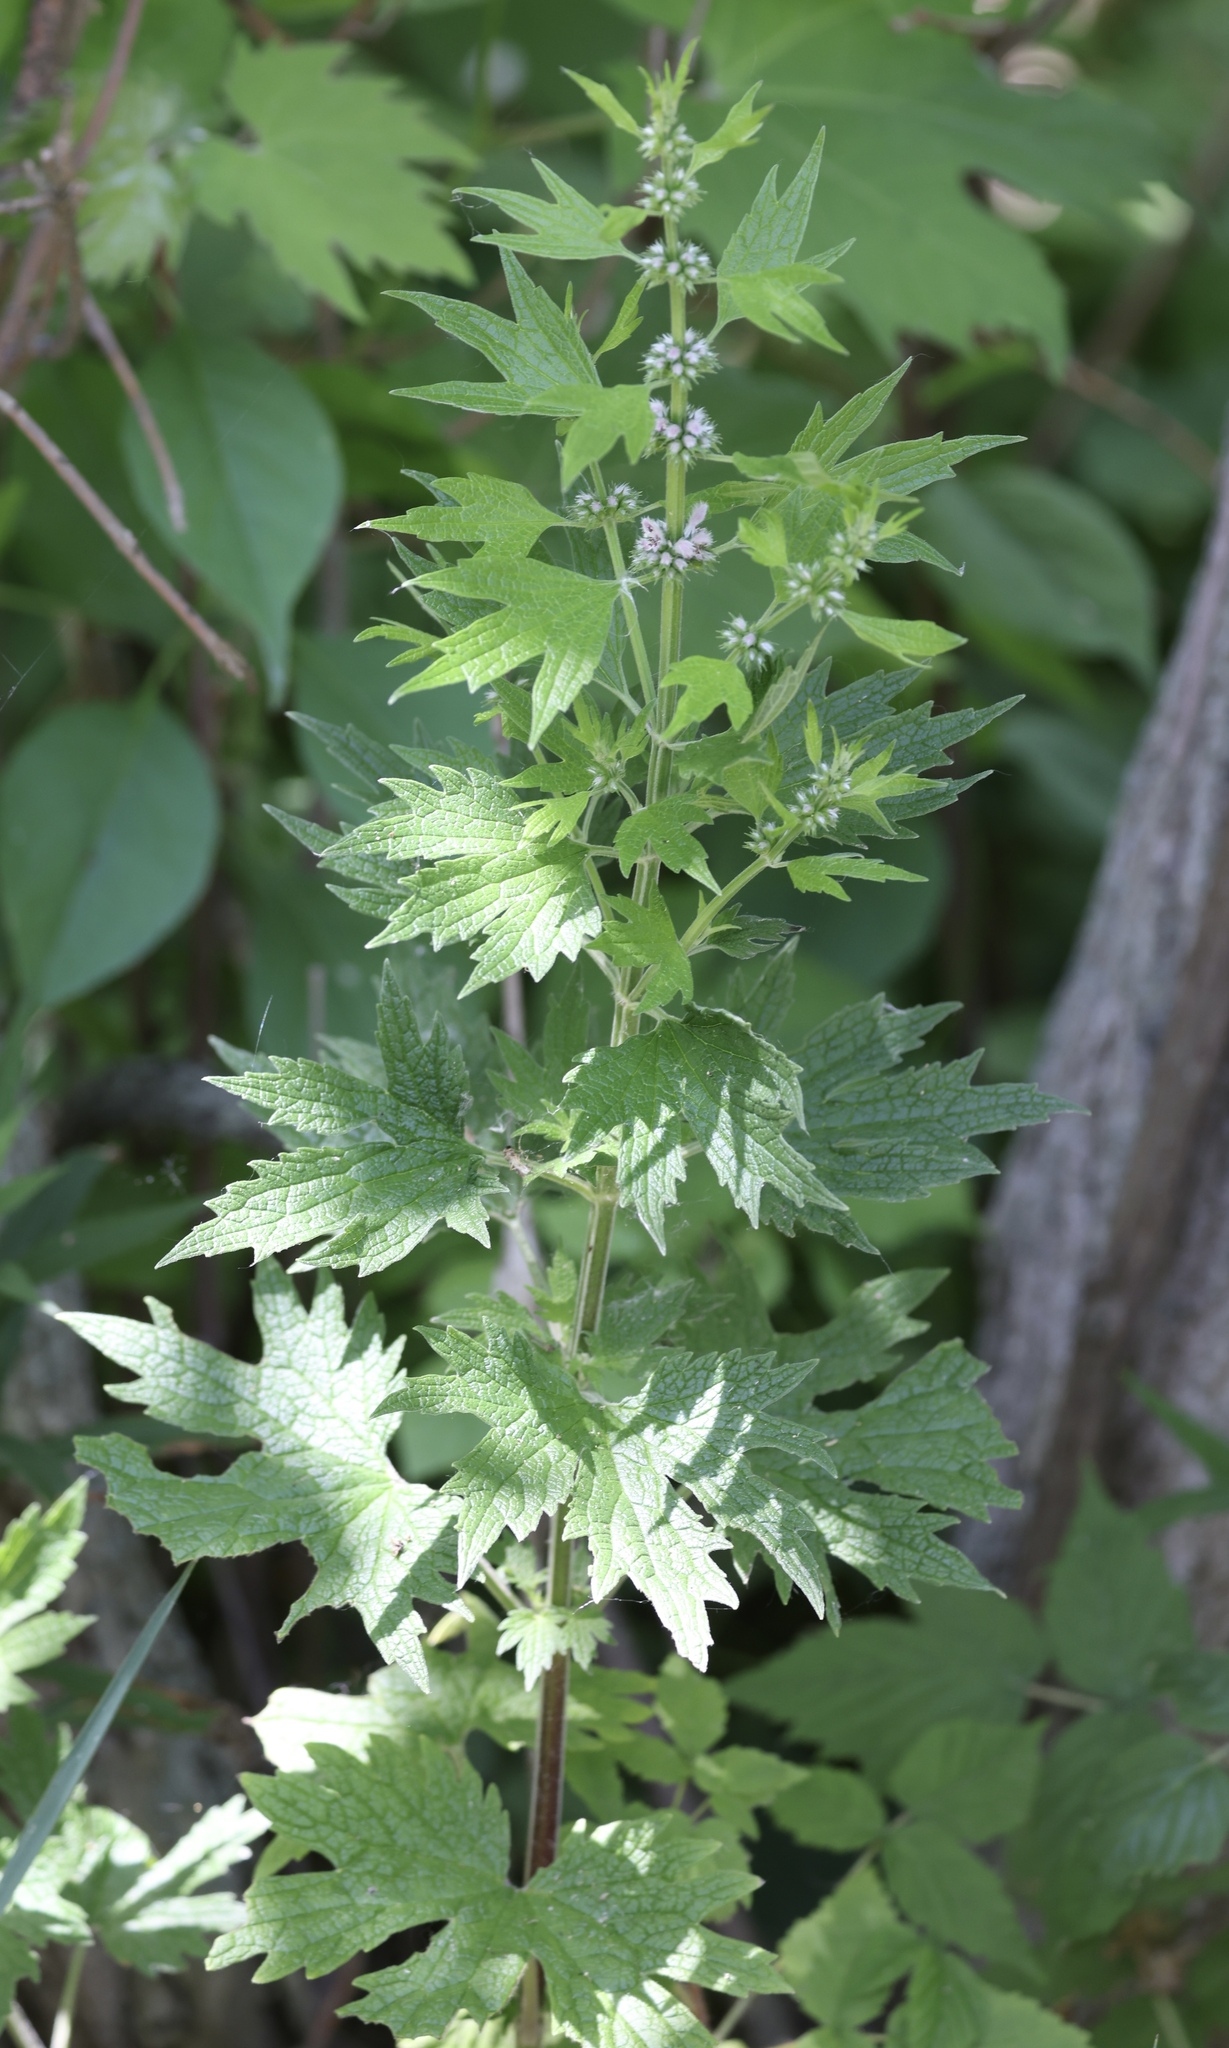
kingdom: Plantae
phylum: Tracheophyta
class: Magnoliopsida
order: Lamiales
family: Lamiaceae
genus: Leonurus
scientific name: Leonurus cardiaca
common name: Motherwort
